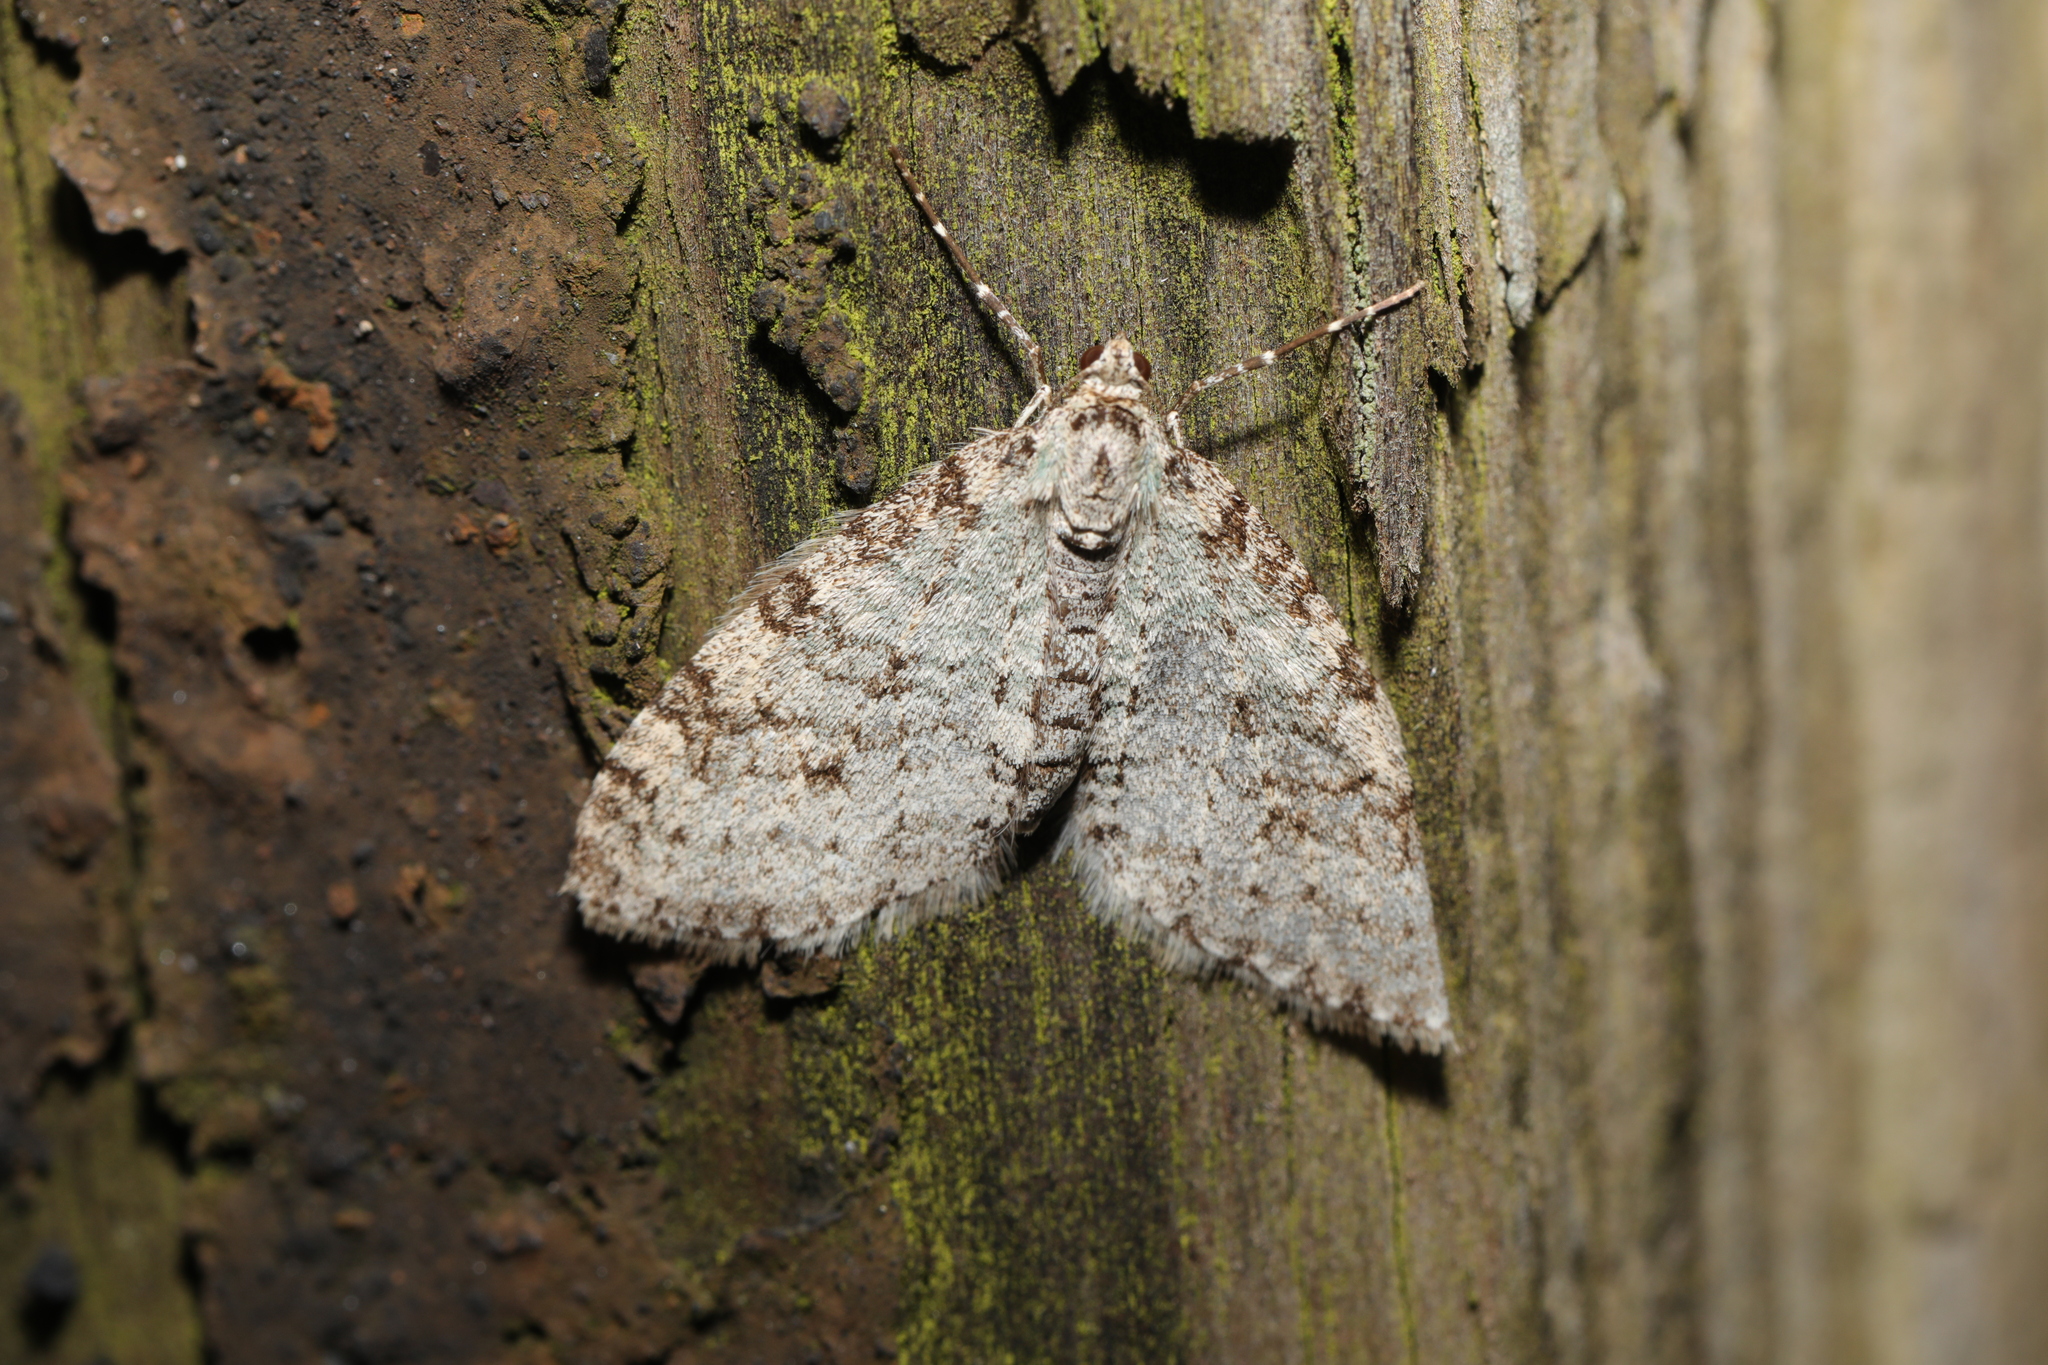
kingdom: Animalia
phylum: Arthropoda
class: Insecta
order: Lepidoptera
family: Geometridae
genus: Trichopteryx
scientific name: Trichopteryx carpinata
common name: Early tooth-striped
